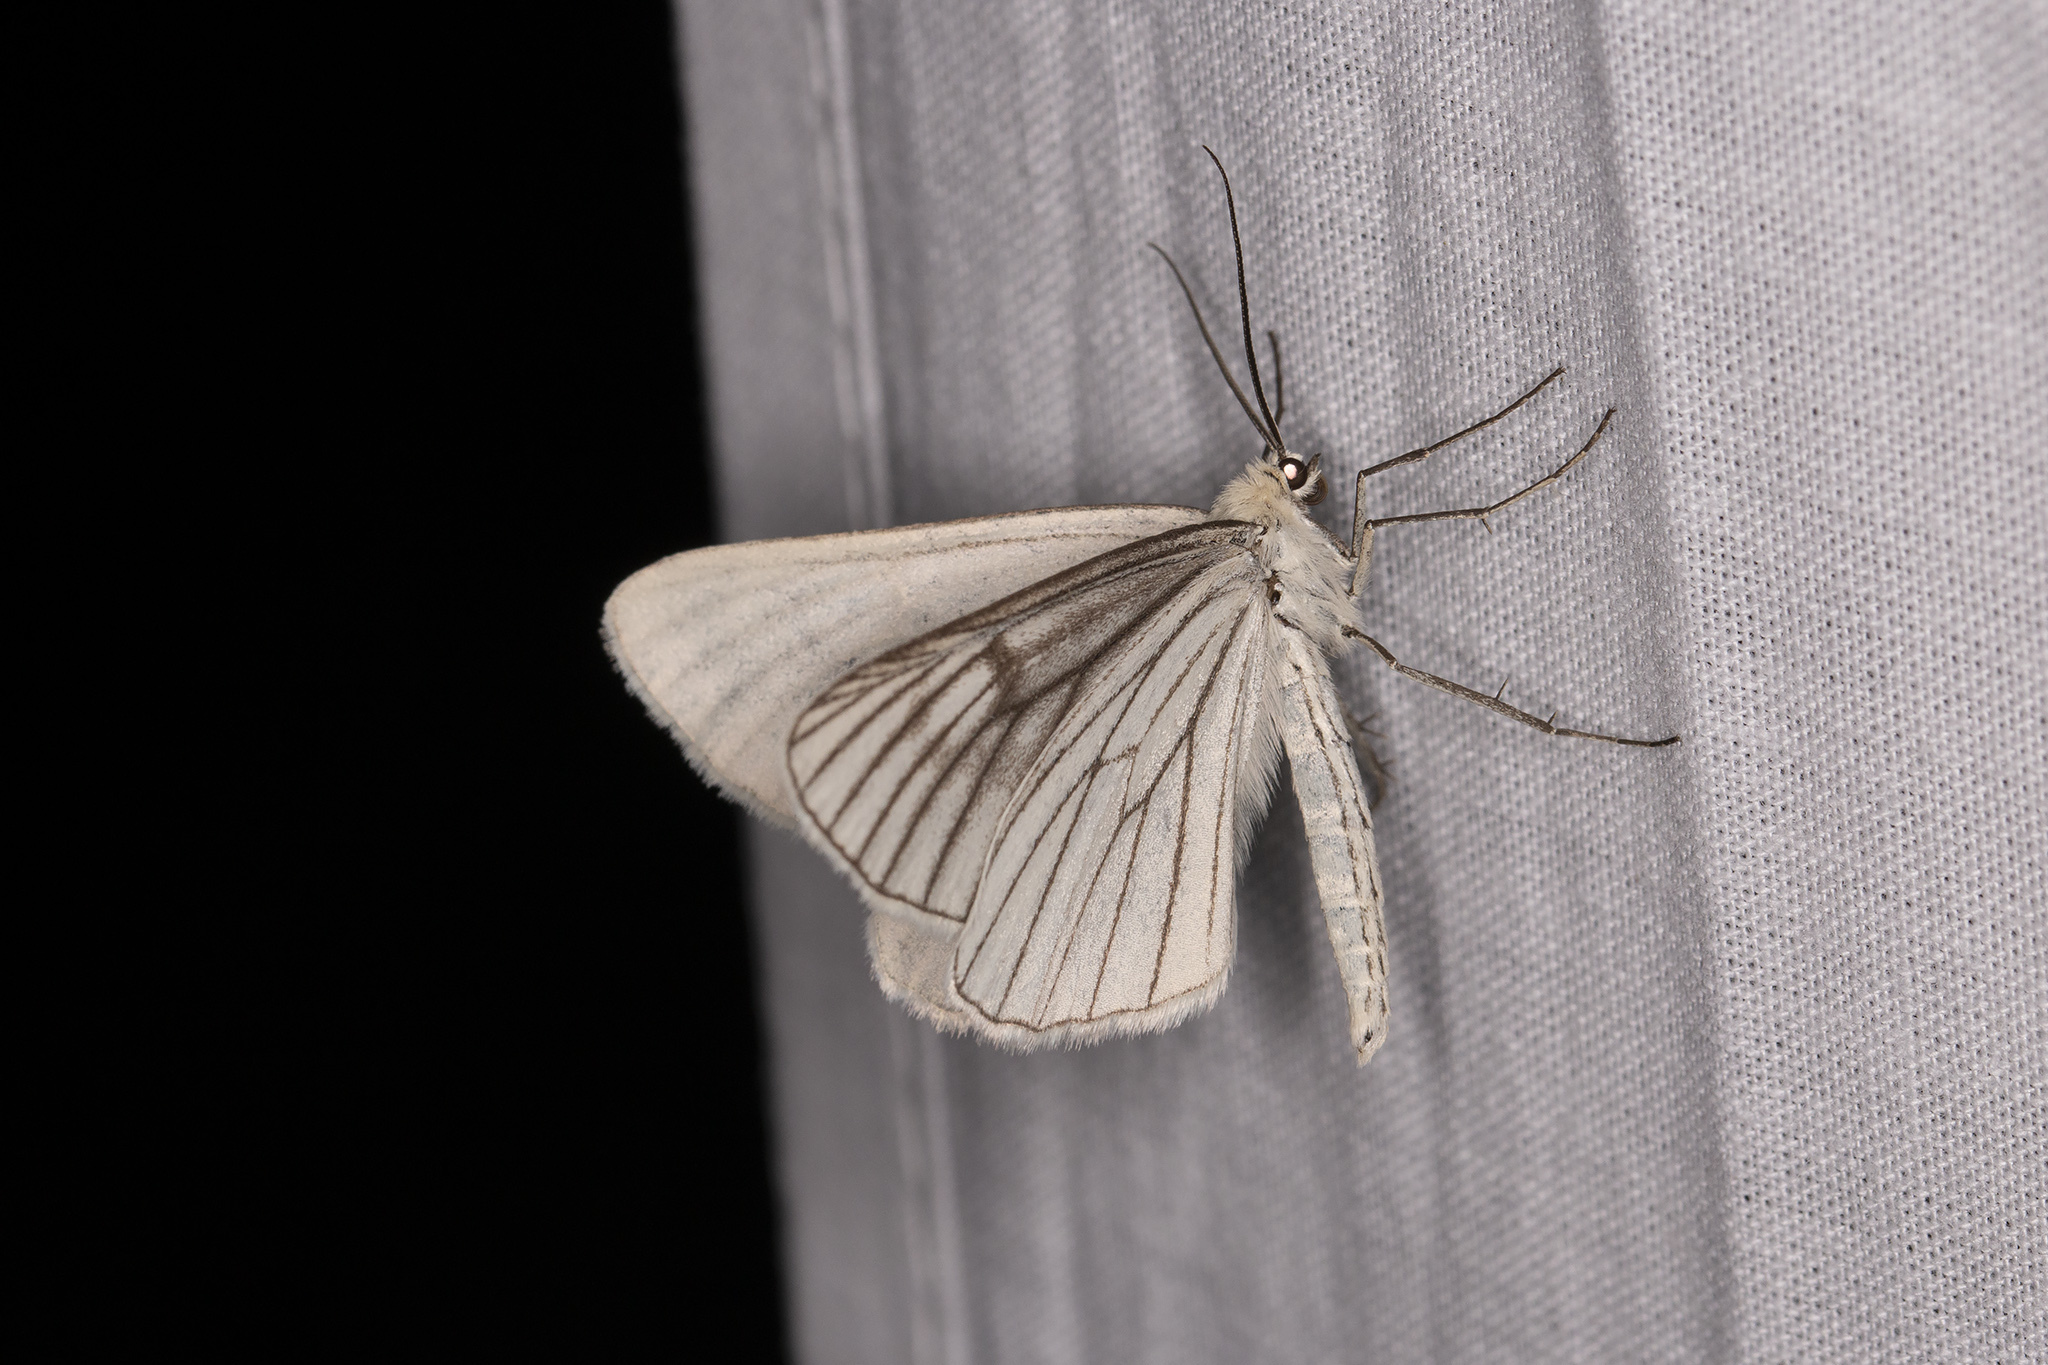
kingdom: Animalia
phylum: Arthropoda
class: Insecta
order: Lepidoptera
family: Geometridae
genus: Siona
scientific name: Siona lineata
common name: Black-veined moth
